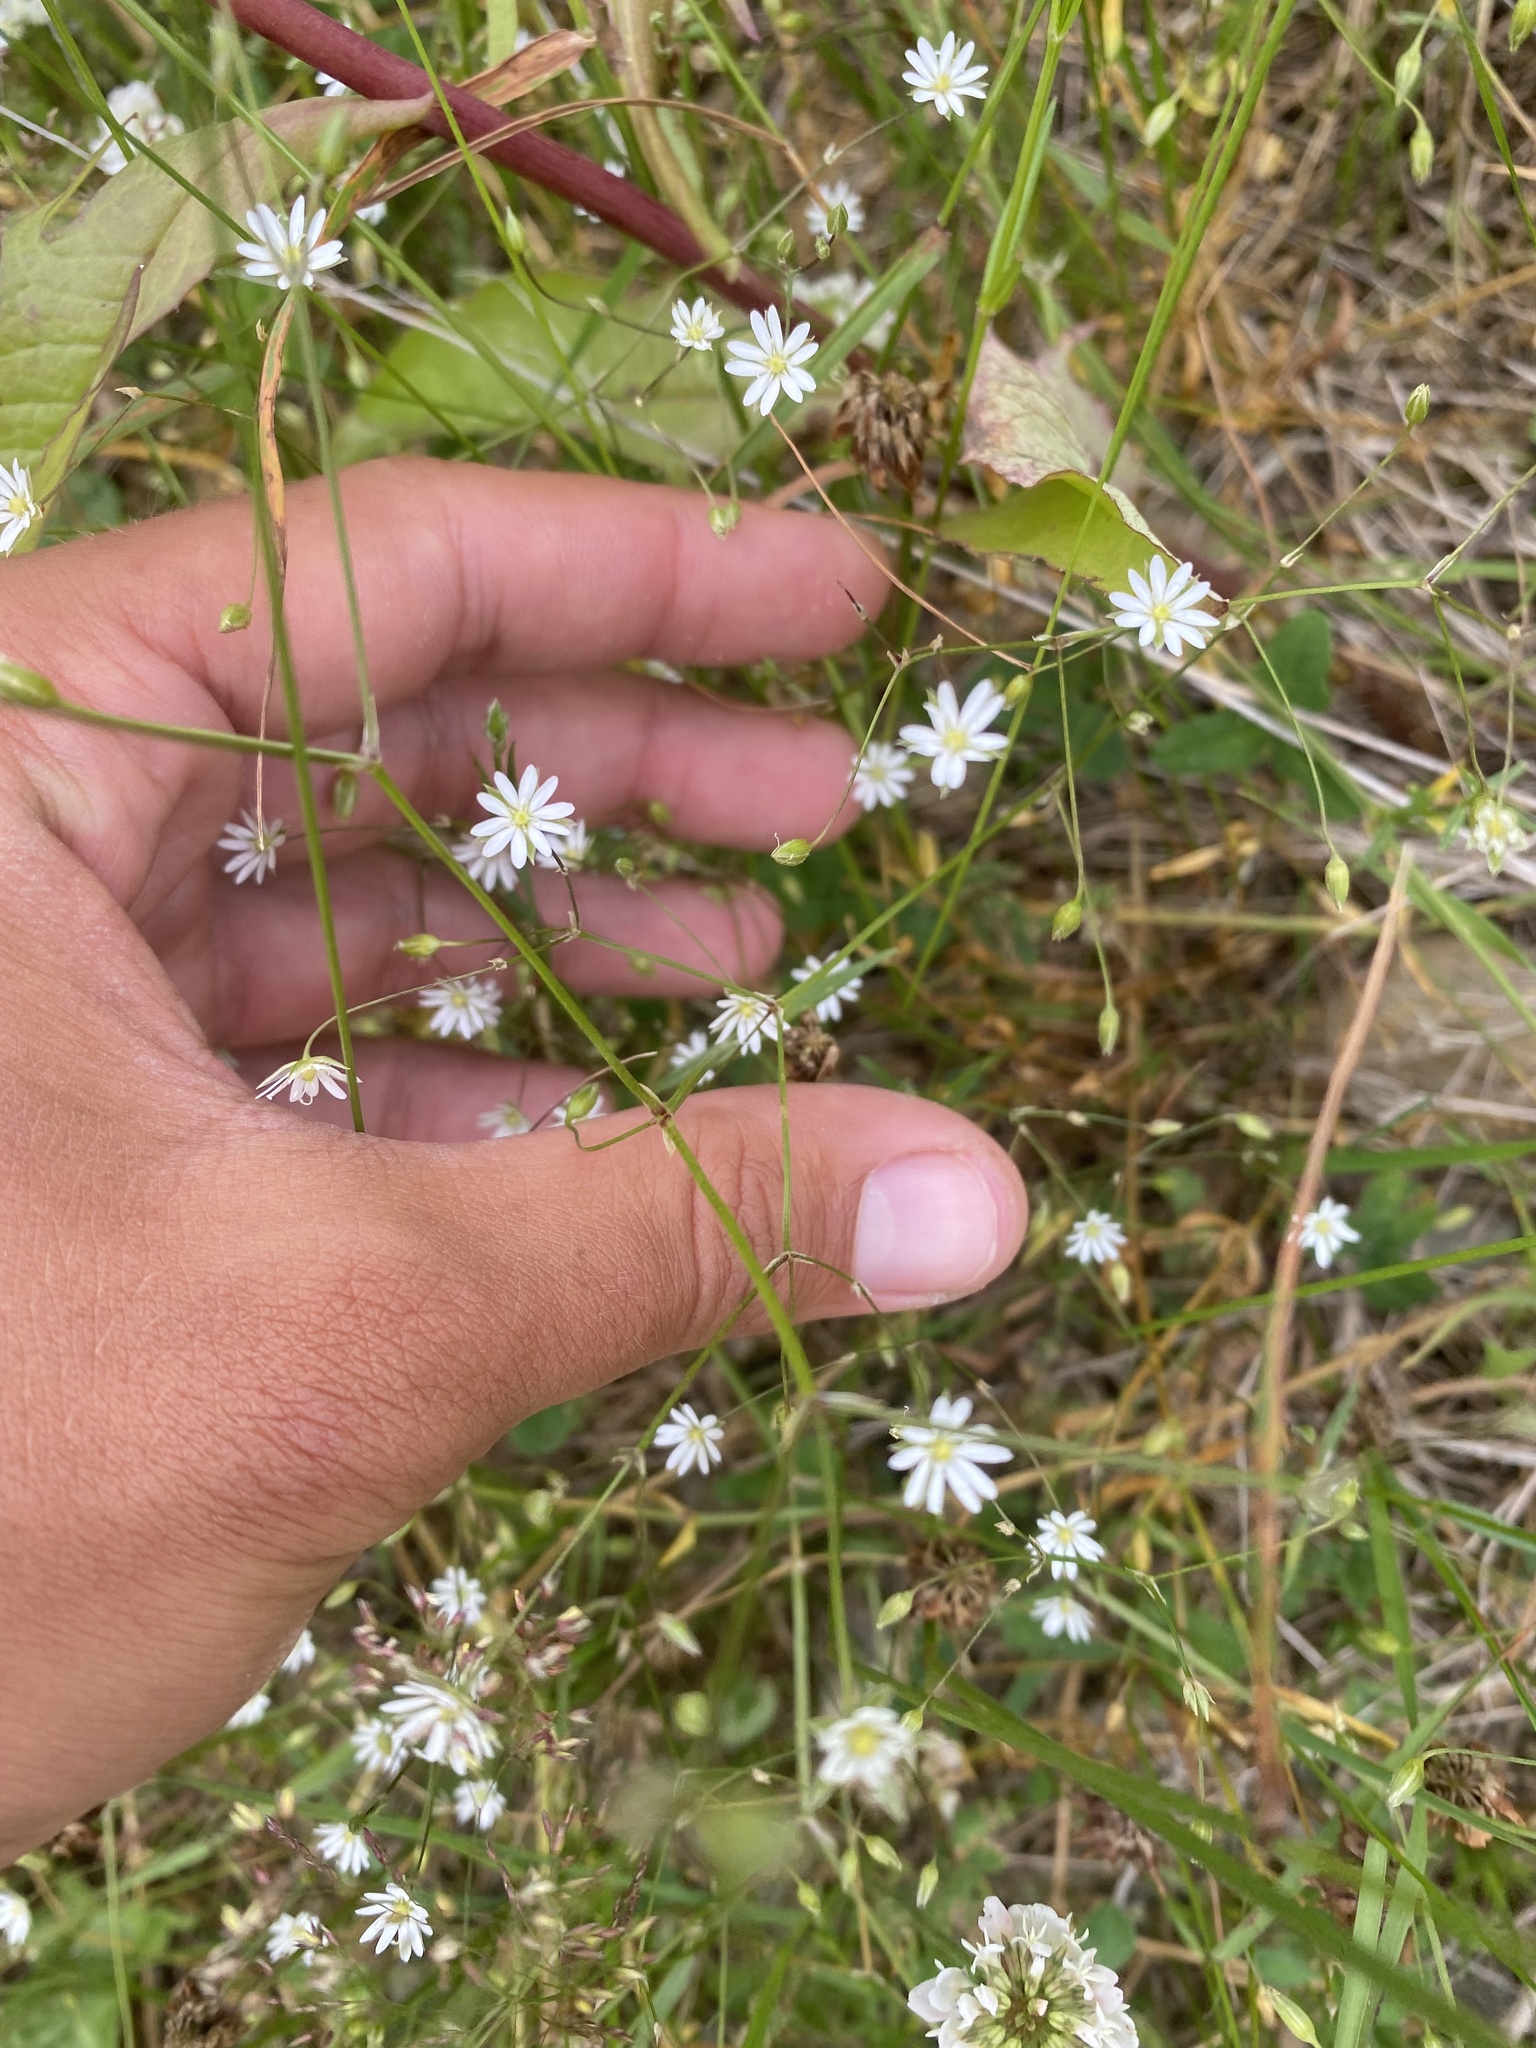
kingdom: Plantae
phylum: Tracheophyta
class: Magnoliopsida
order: Caryophyllales
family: Caryophyllaceae
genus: Stellaria
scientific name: Stellaria graminea
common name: Grass-like starwort
